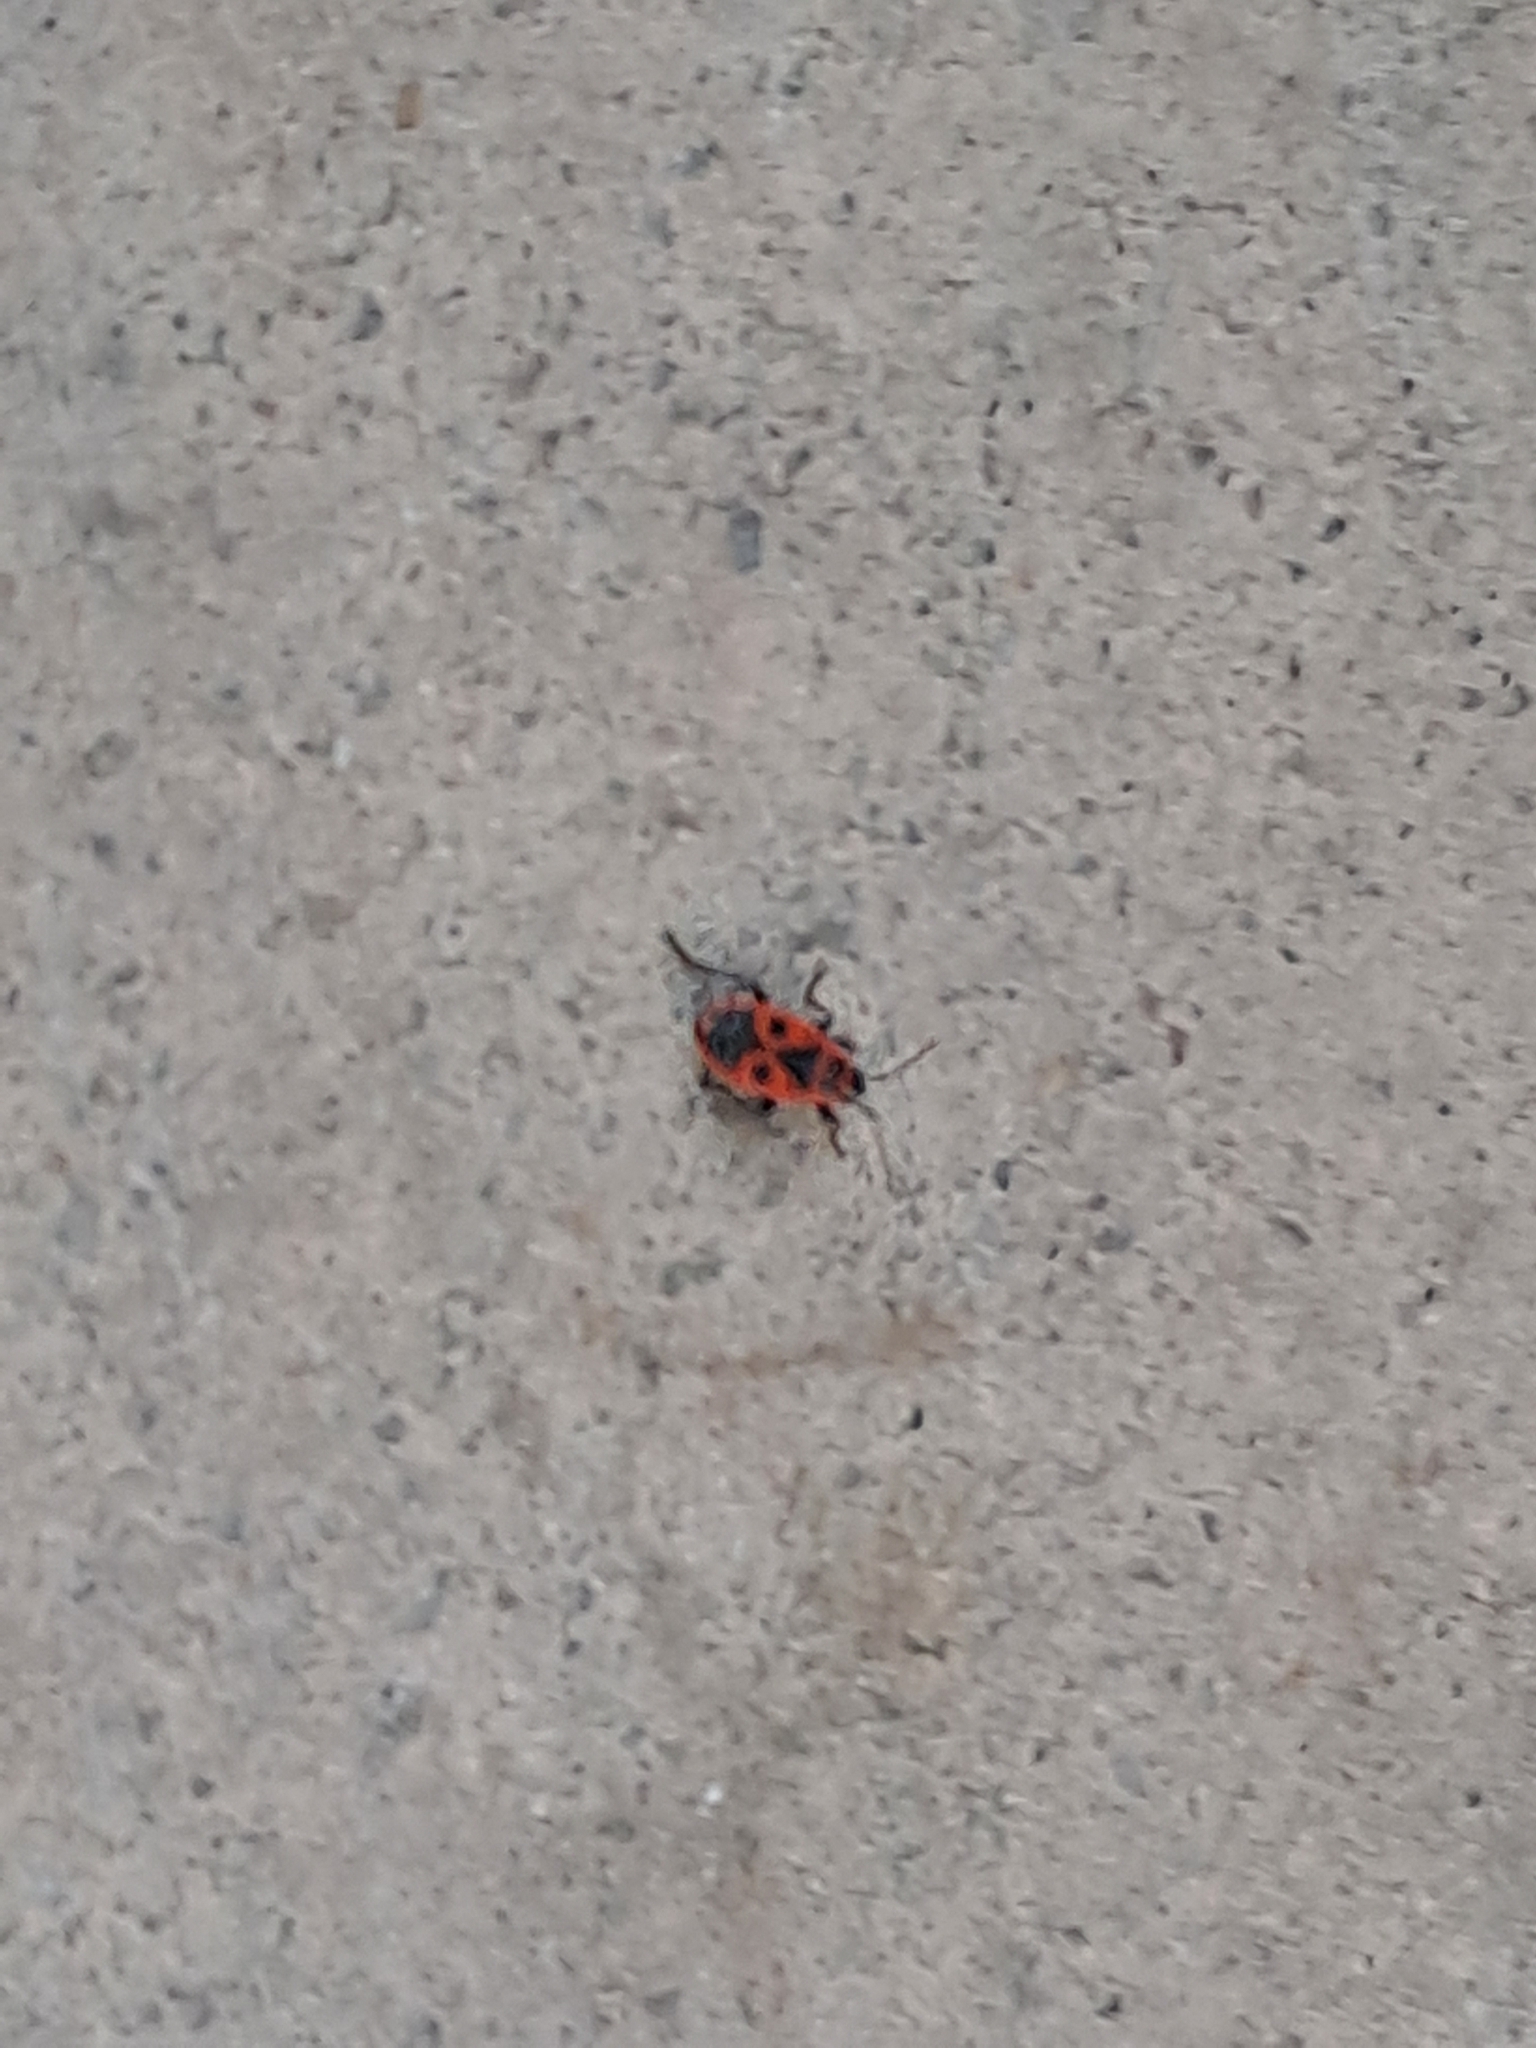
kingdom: Animalia
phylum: Arthropoda
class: Insecta
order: Hemiptera
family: Pyrrhocoridae
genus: Pyrrhocoris
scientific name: Pyrrhocoris apterus
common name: Firebug
